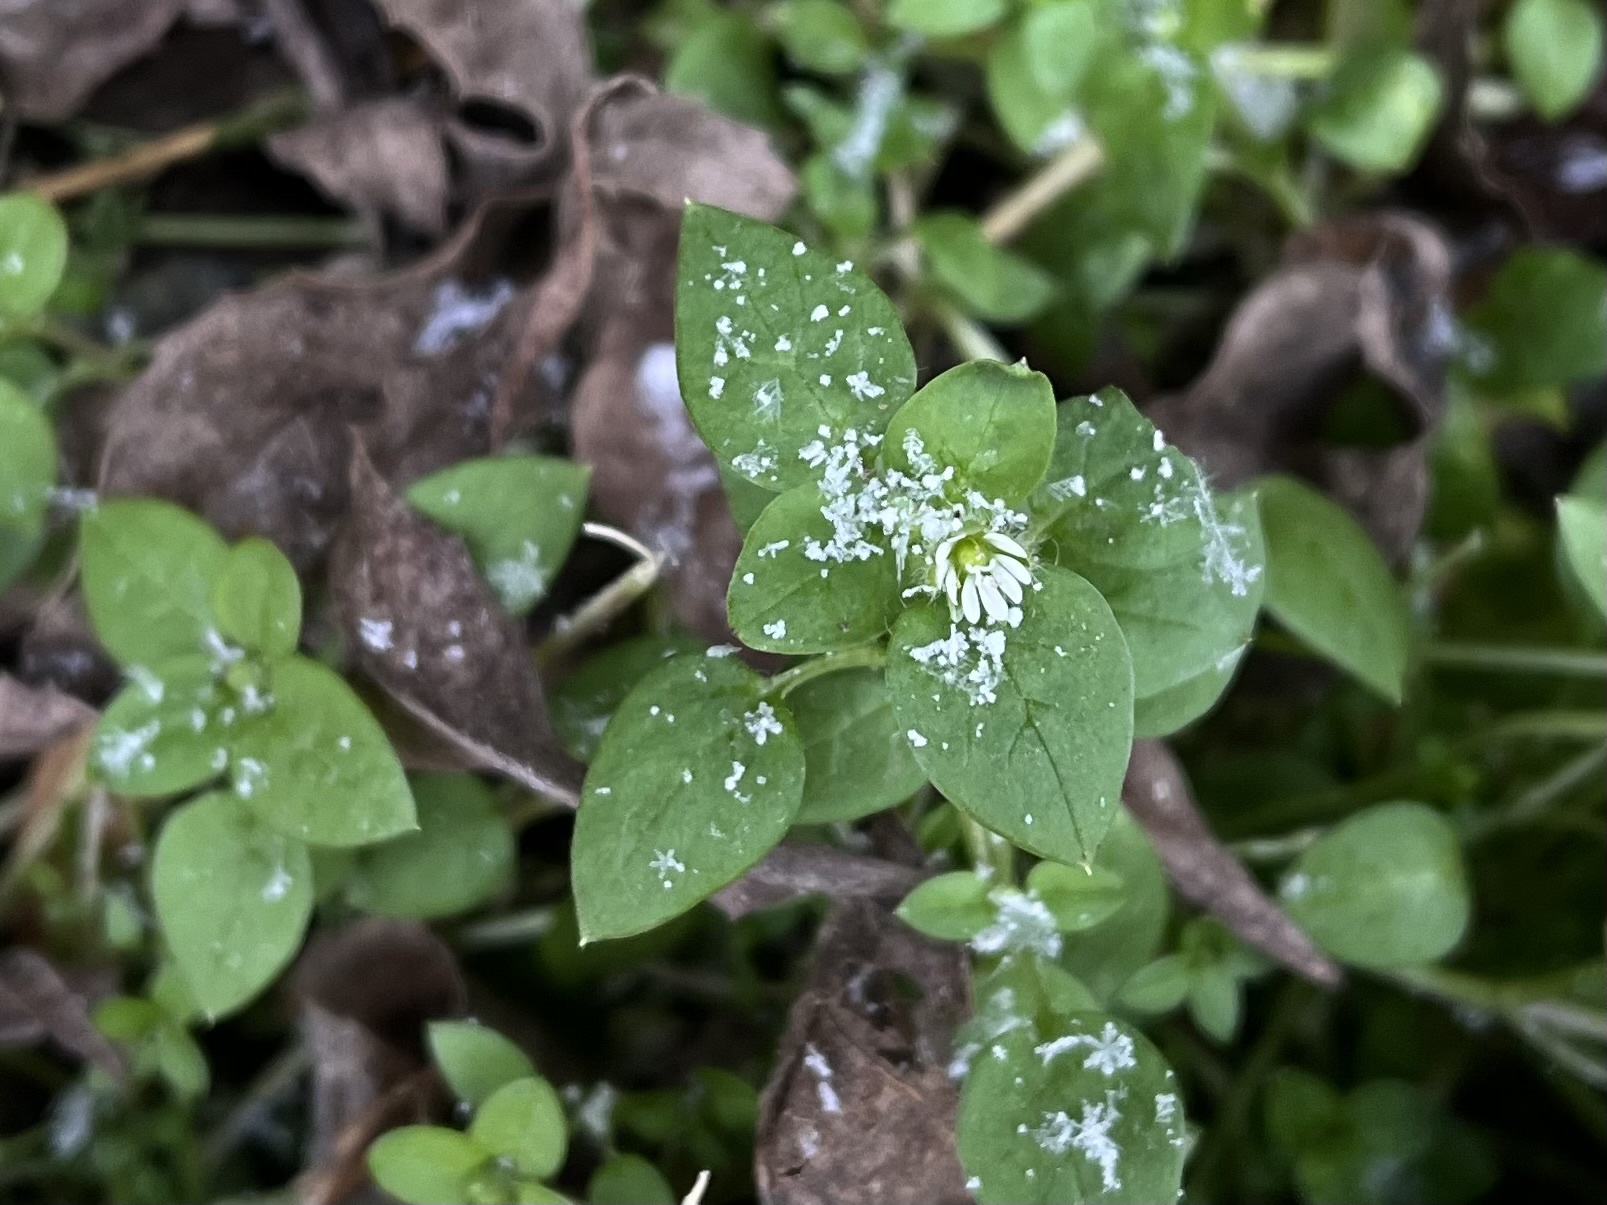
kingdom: Plantae
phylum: Tracheophyta
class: Magnoliopsida
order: Caryophyllales
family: Caryophyllaceae
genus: Stellaria
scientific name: Stellaria media
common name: Common chickweed
